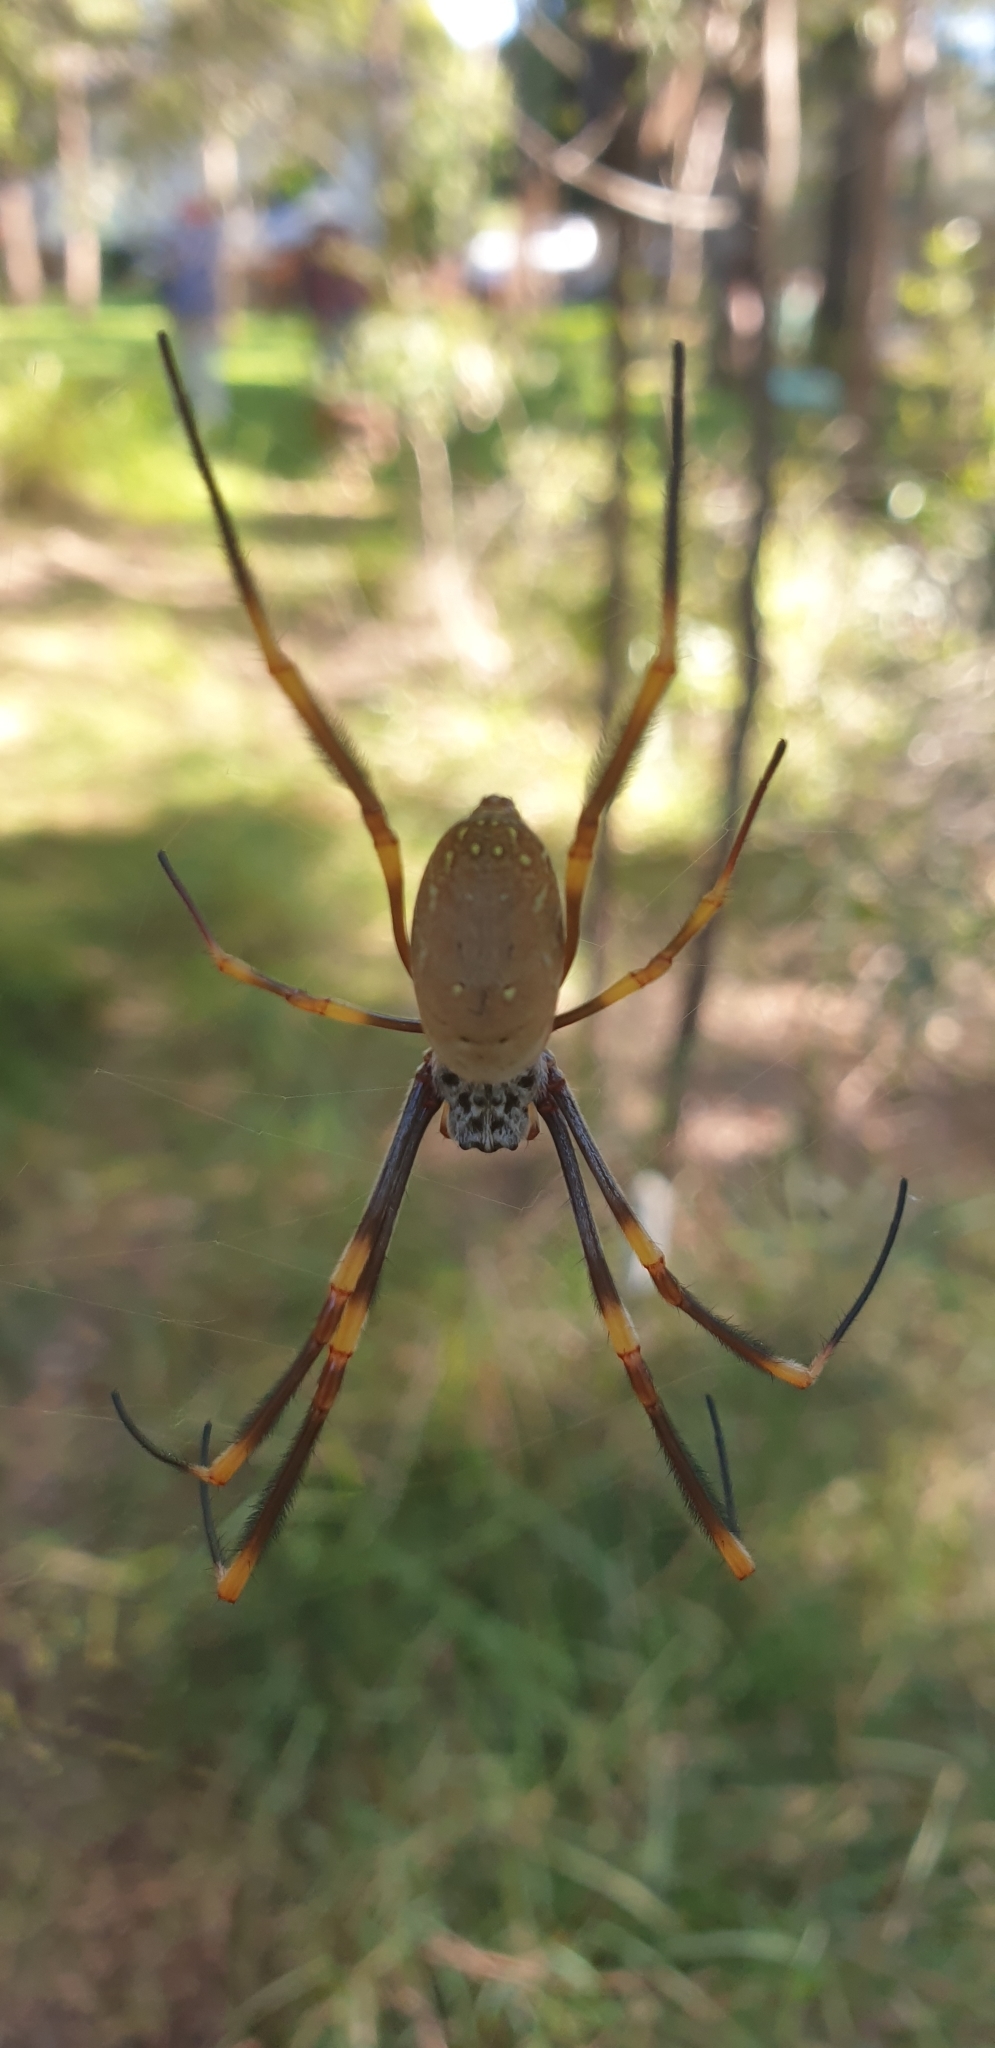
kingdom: Animalia
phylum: Arthropoda
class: Arachnida
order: Araneae
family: Araneidae
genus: Trichonephila
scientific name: Trichonephila plumipes
